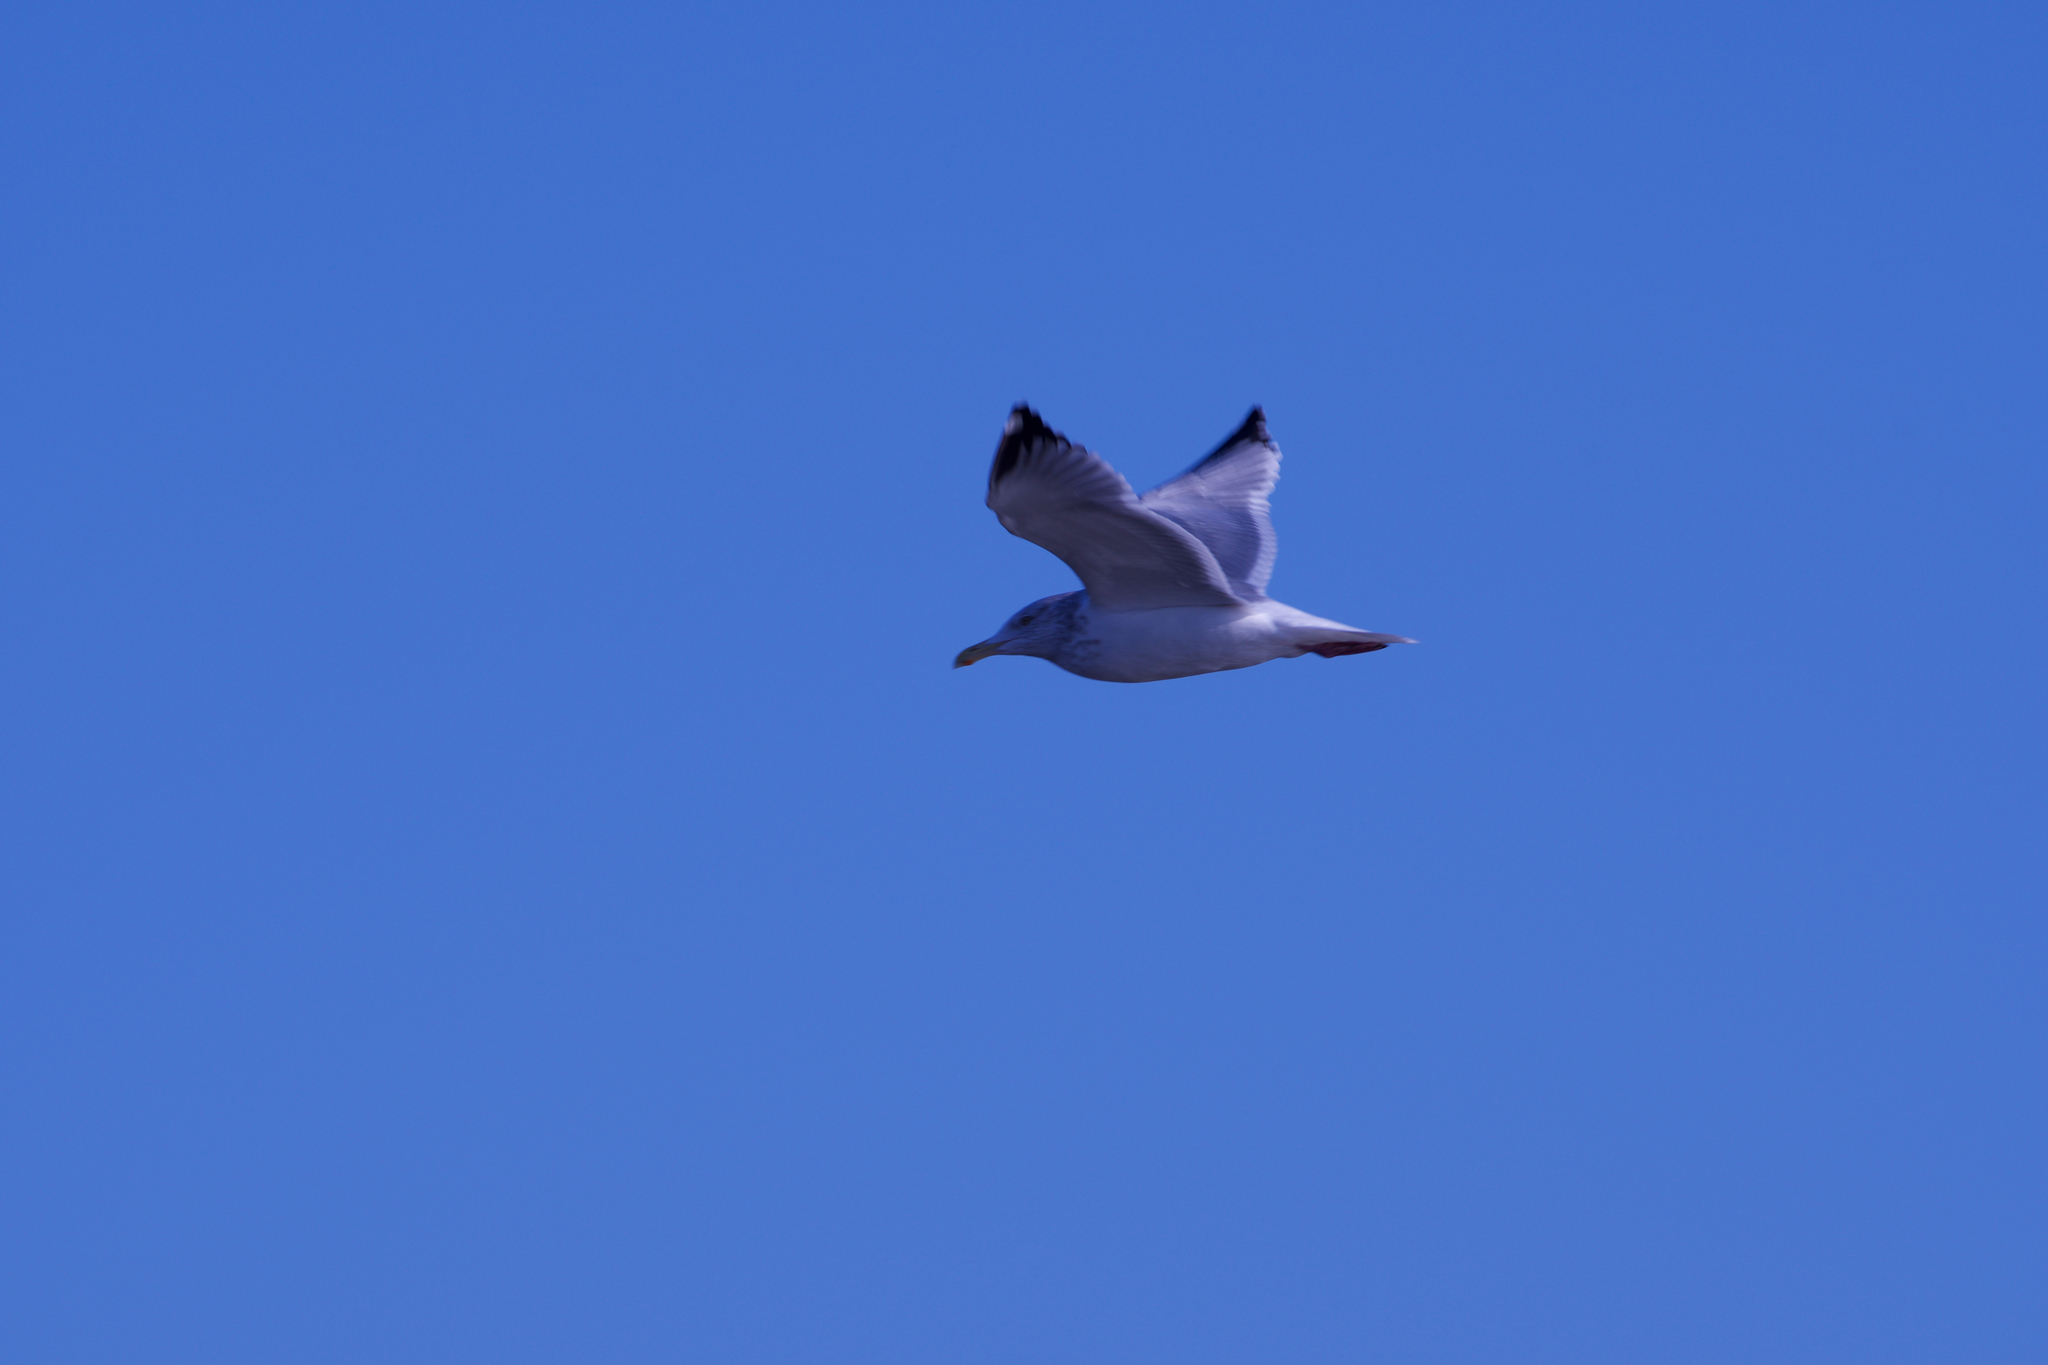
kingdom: Animalia
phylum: Chordata
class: Aves
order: Charadriiformes
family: Laridae
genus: Larus
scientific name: Larus argentatus
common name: Herring gull
